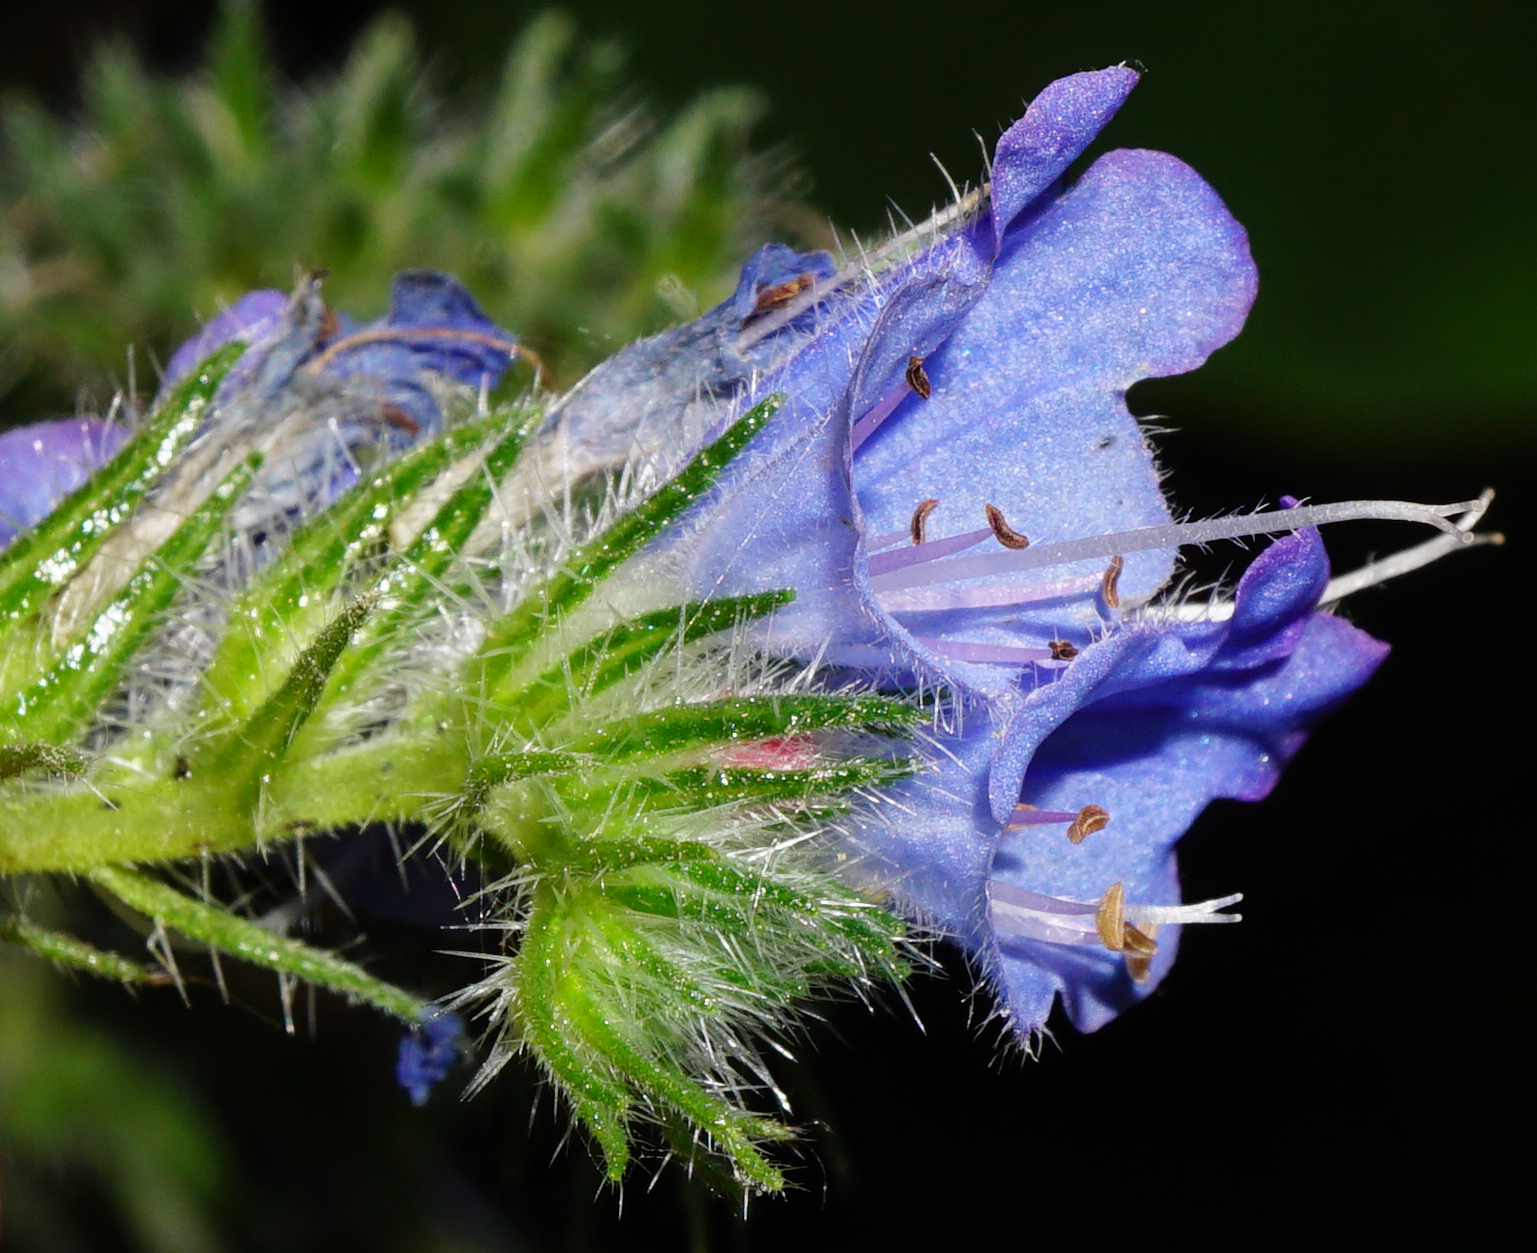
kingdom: Plantae
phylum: Tracheophyta
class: Magnoliopsida
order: Boraginales
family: Boraginaceae
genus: Echium
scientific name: Echium vulgare
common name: Common viper's bugloss
